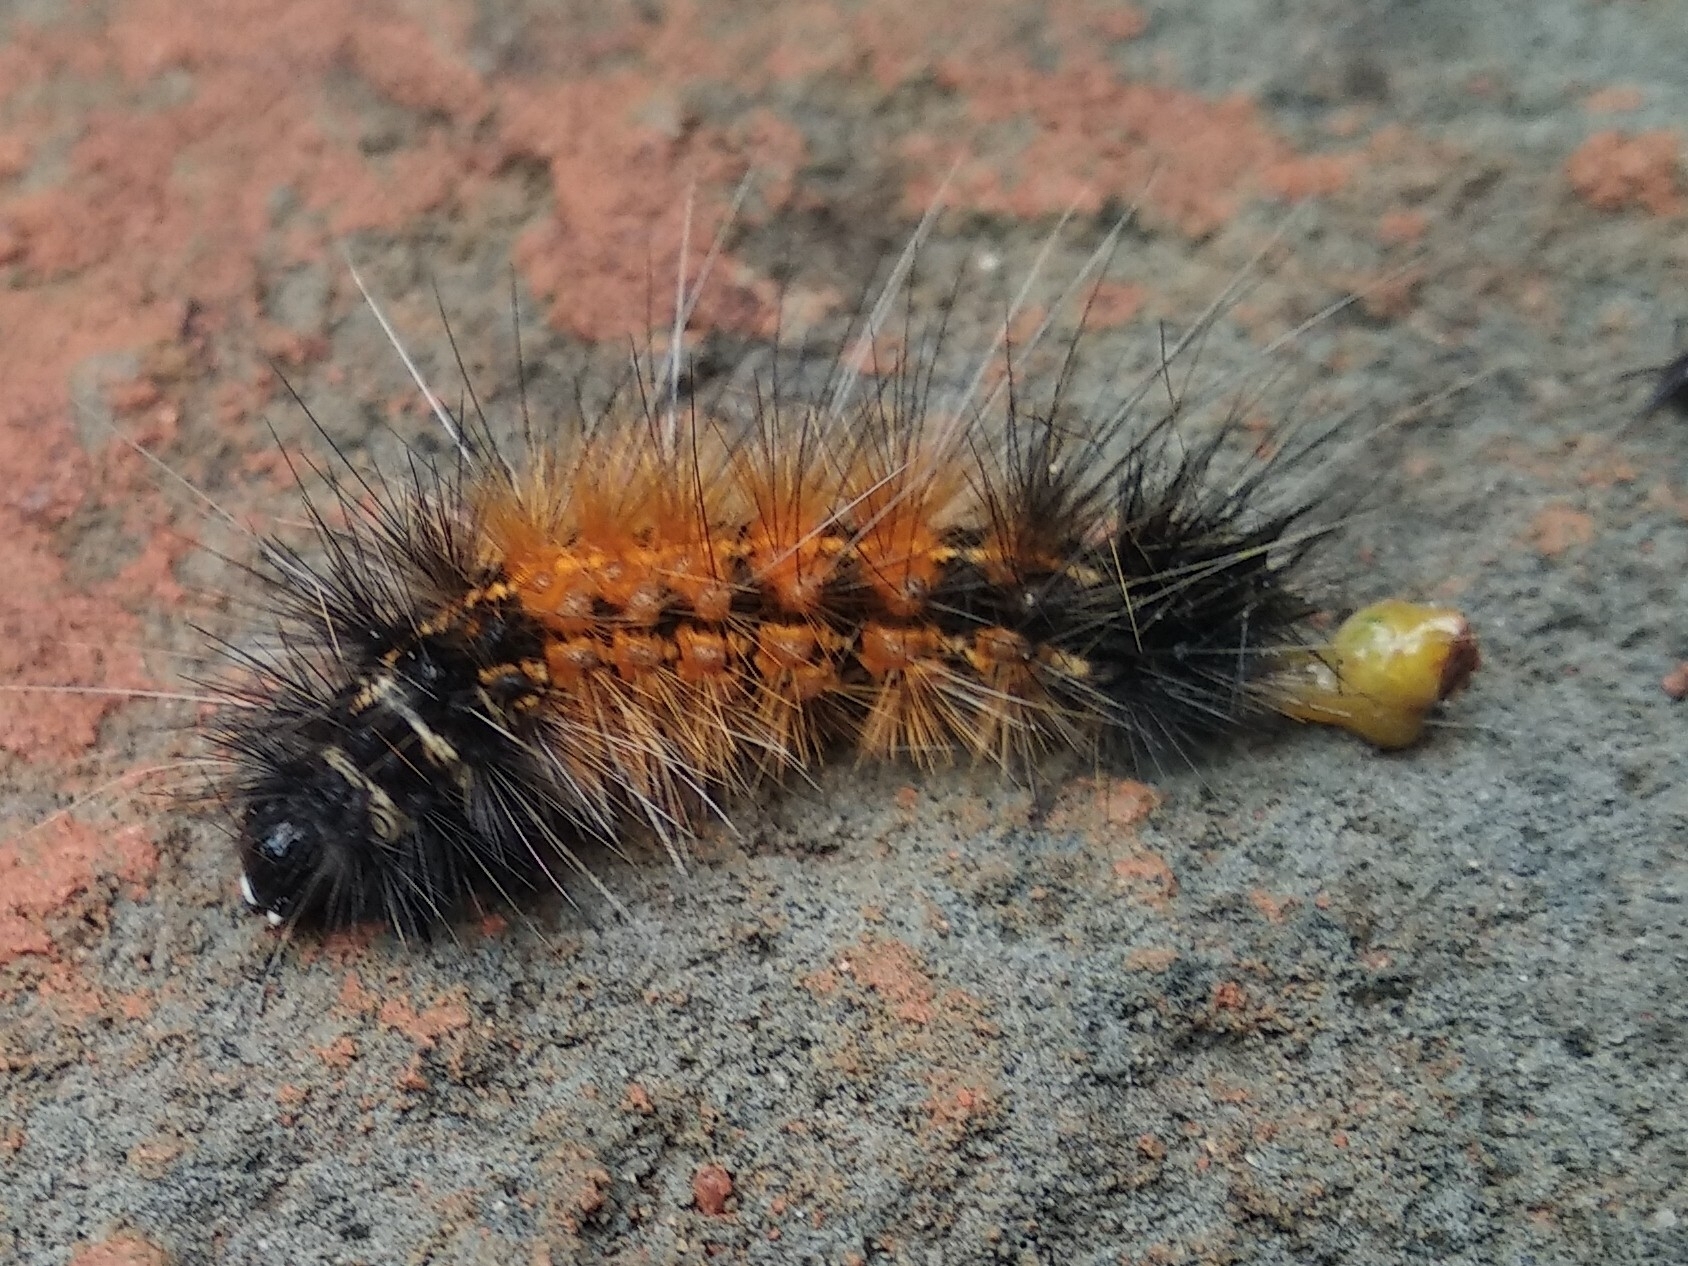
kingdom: Animalia
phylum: Arthropoda
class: Insecta
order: Lepidoptera
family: Erebidae
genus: Creatonotos
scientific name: Creatonotos transiens
